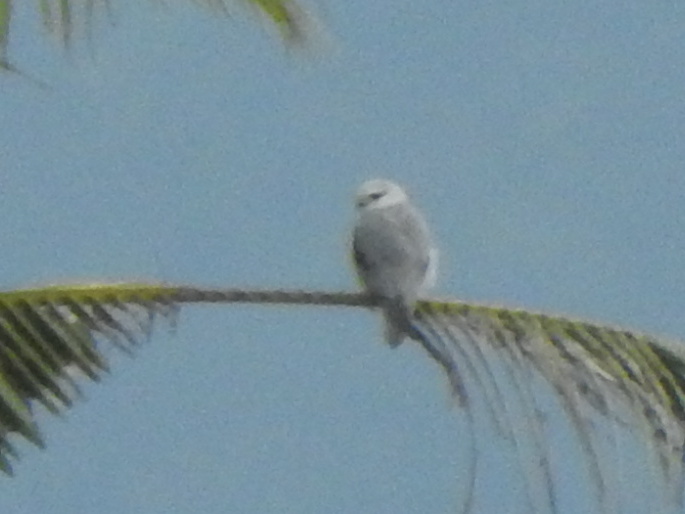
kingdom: Animalia
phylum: Chordata
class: Aves
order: Accipitriformes
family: Accipitridae
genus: Elanus
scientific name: Elanus caeruleus
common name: Black-winged kite
